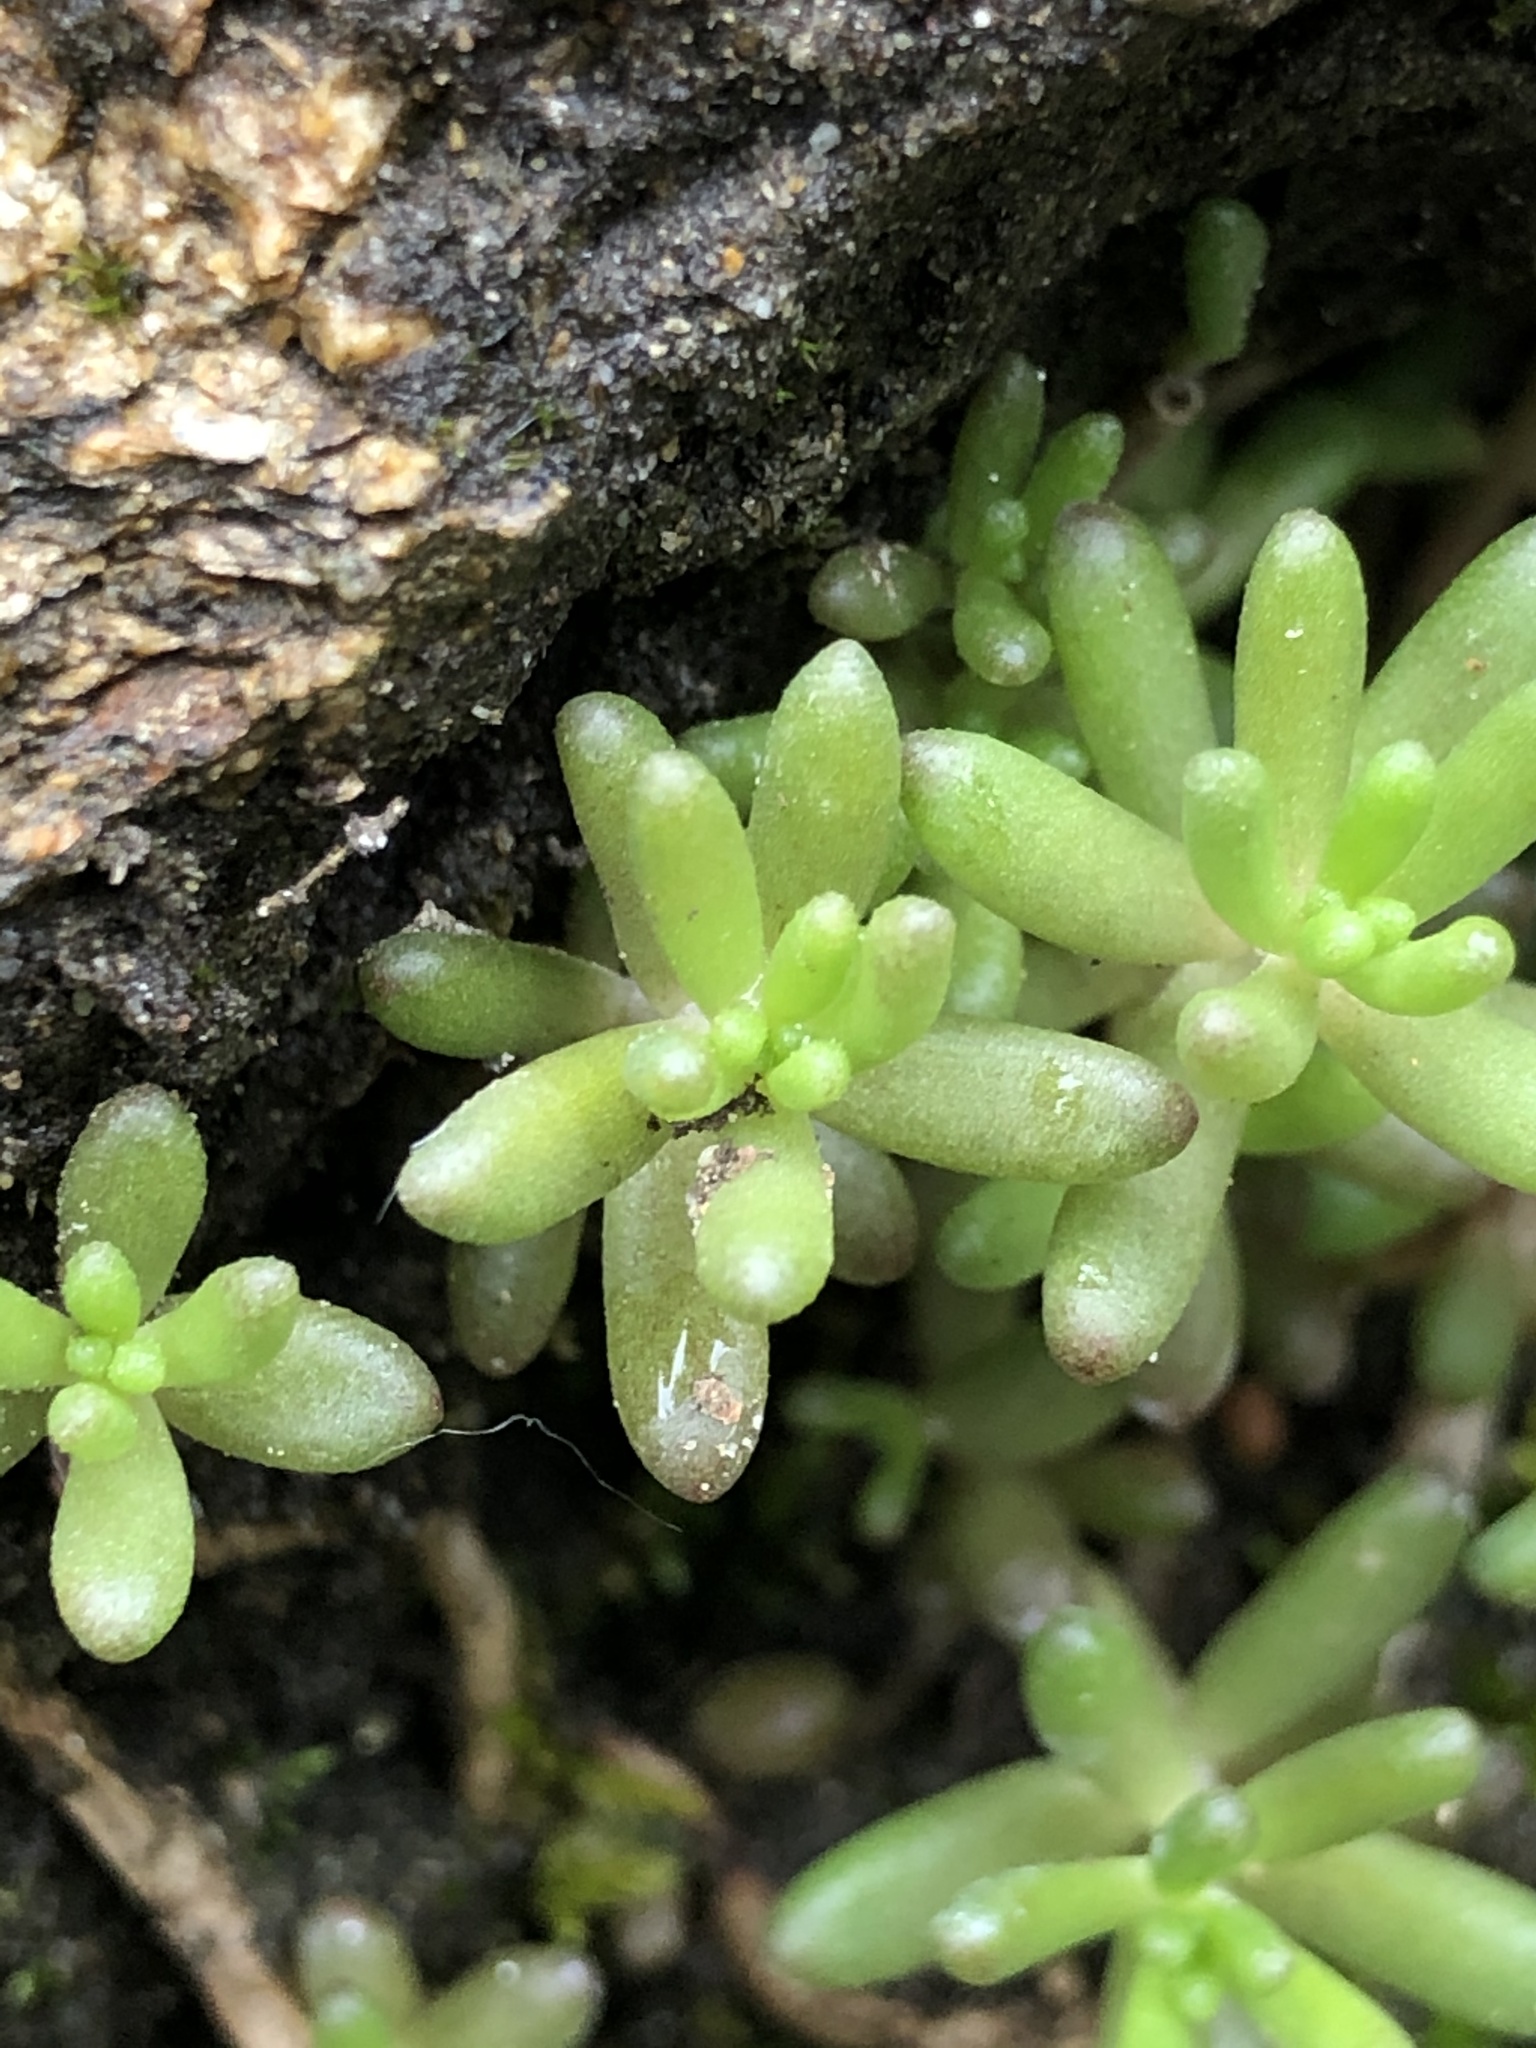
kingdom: Plantae
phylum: Tracheophyta
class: Magnoliopsida
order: Saxifragales
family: Crassulaceae
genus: Sedum
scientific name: Sedum album
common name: White stonecrop
